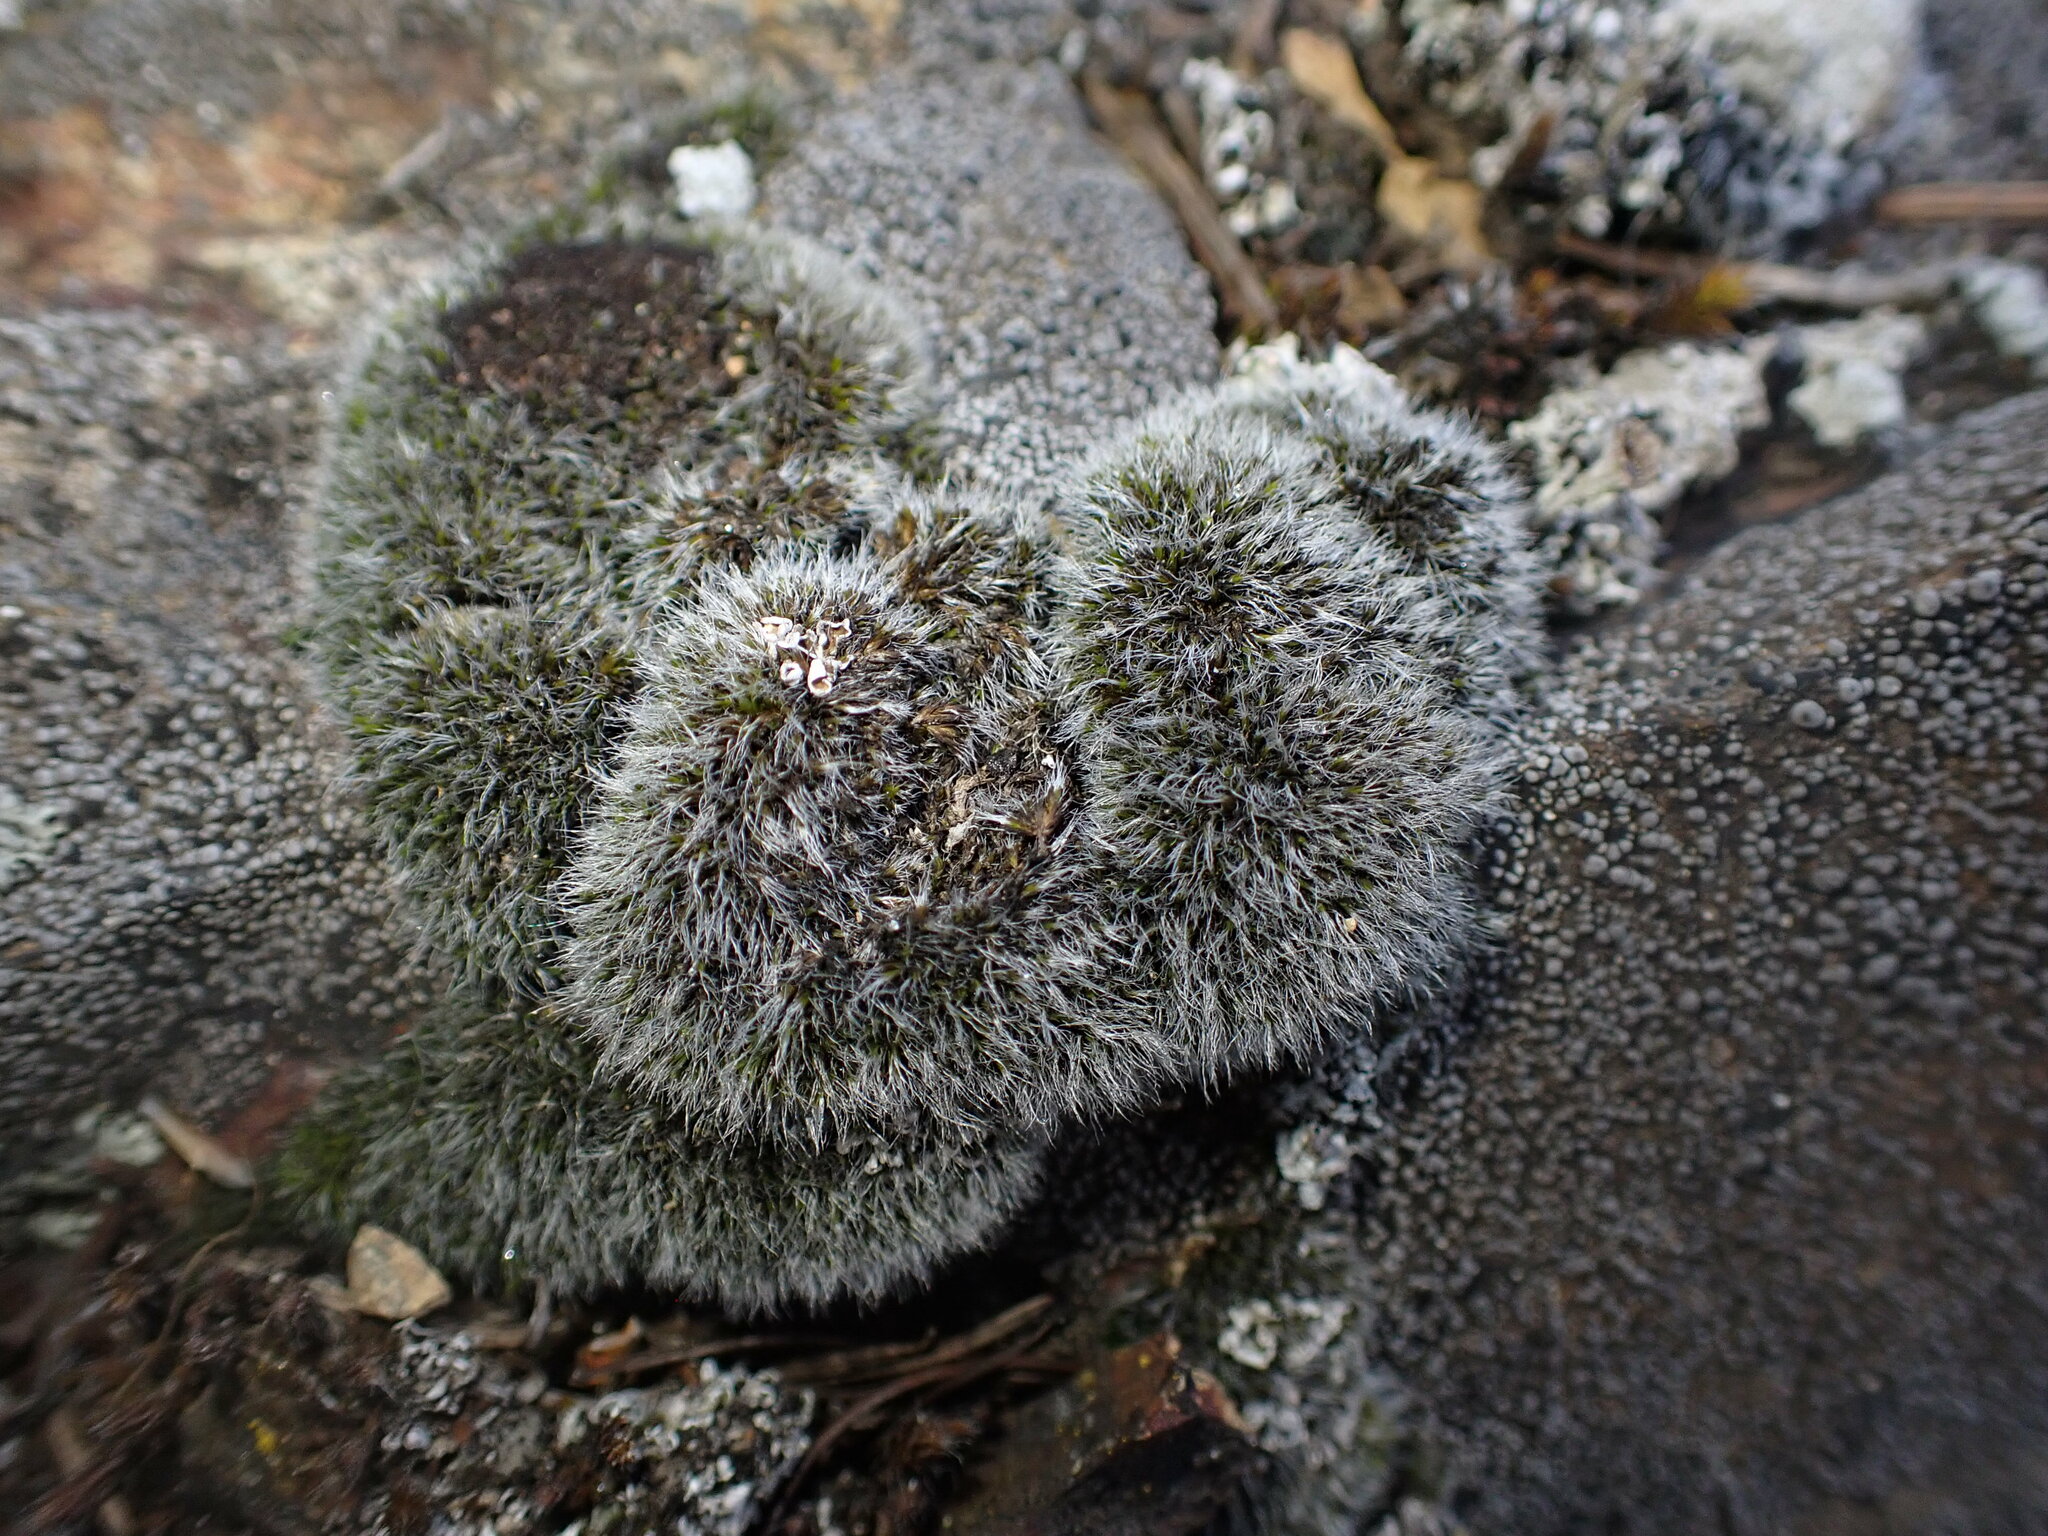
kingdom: Plantae
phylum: Bryophyta
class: Bryopsida
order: Grimmiales
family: Grimmiaceae
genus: Coscinodon
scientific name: Coscinodon calyptratus
